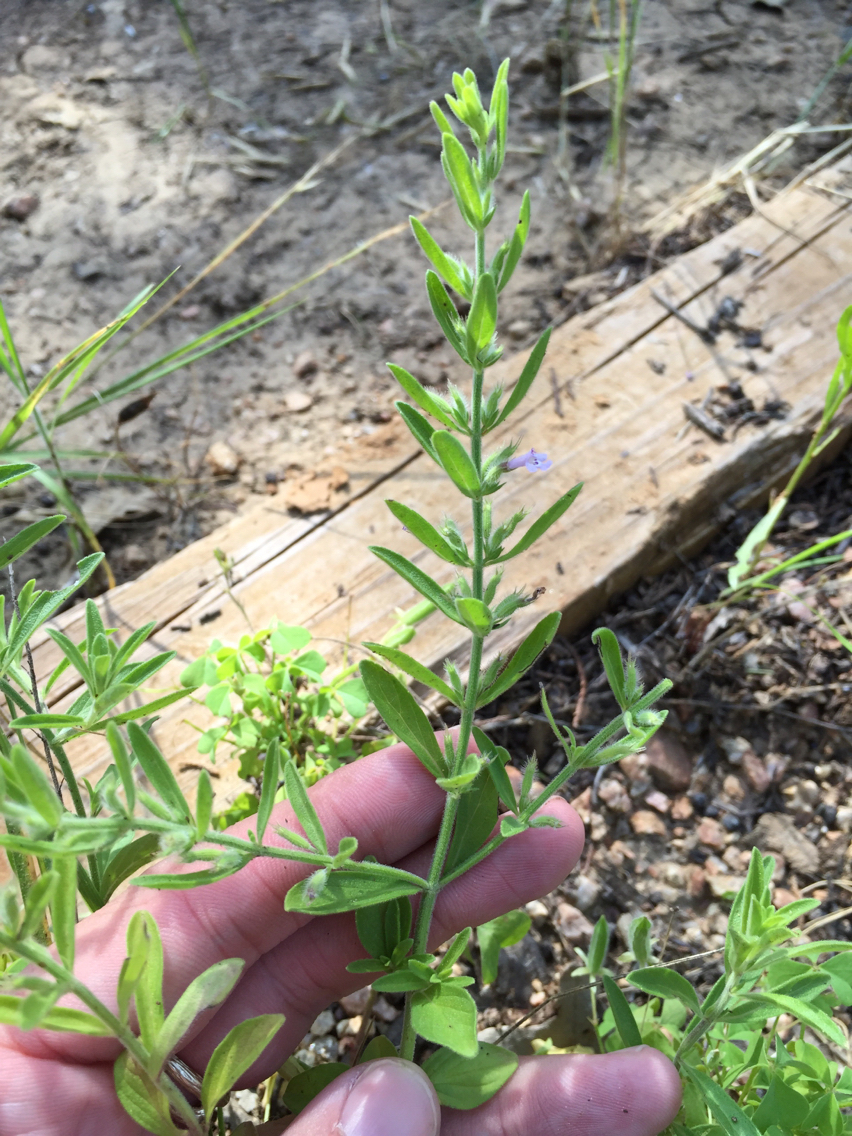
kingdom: Plantae
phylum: Tracheophyta
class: Magnoliopsida
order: Lamiales
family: Lamiaceae
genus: Hedeoma
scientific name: Hedeoma drummondii
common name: New mexico pennyroyal
